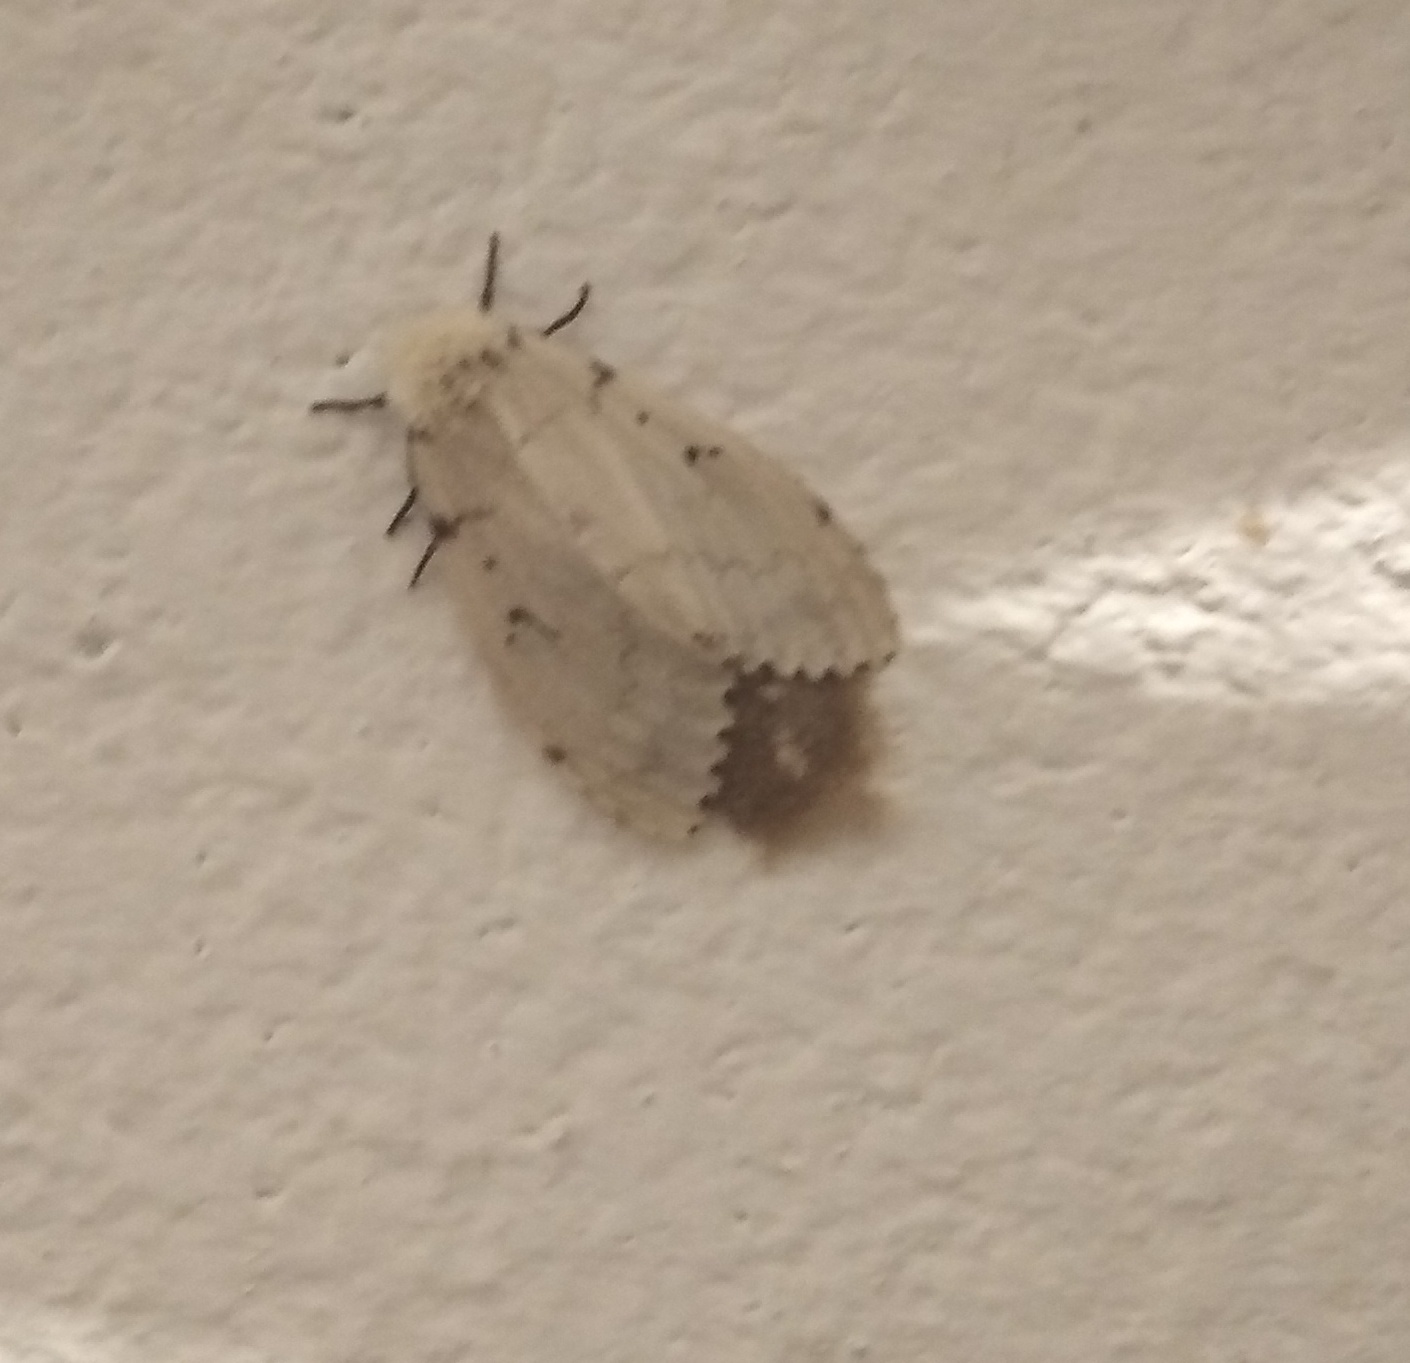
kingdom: Animalia
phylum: Arthropoda
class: Insecta
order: Lepidoptera
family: Erebidae
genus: Lymantria
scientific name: Lymantria dispar
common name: Gypsy moth
